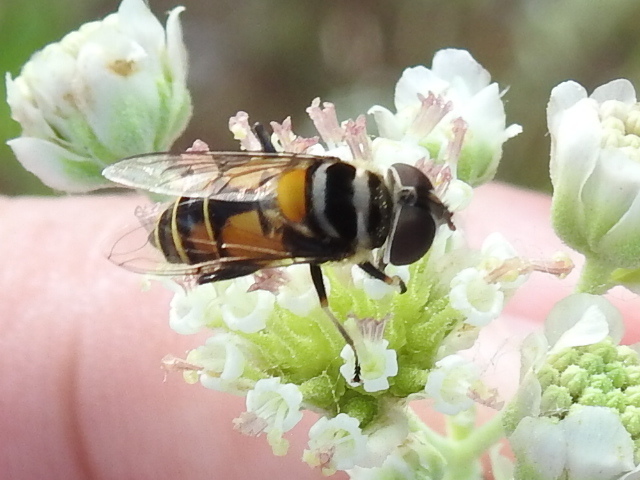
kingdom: Animalia
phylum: Arthropoda
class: Insecta
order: Diptera
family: Syrphidae
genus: Palpada
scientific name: Palpada agrorum
